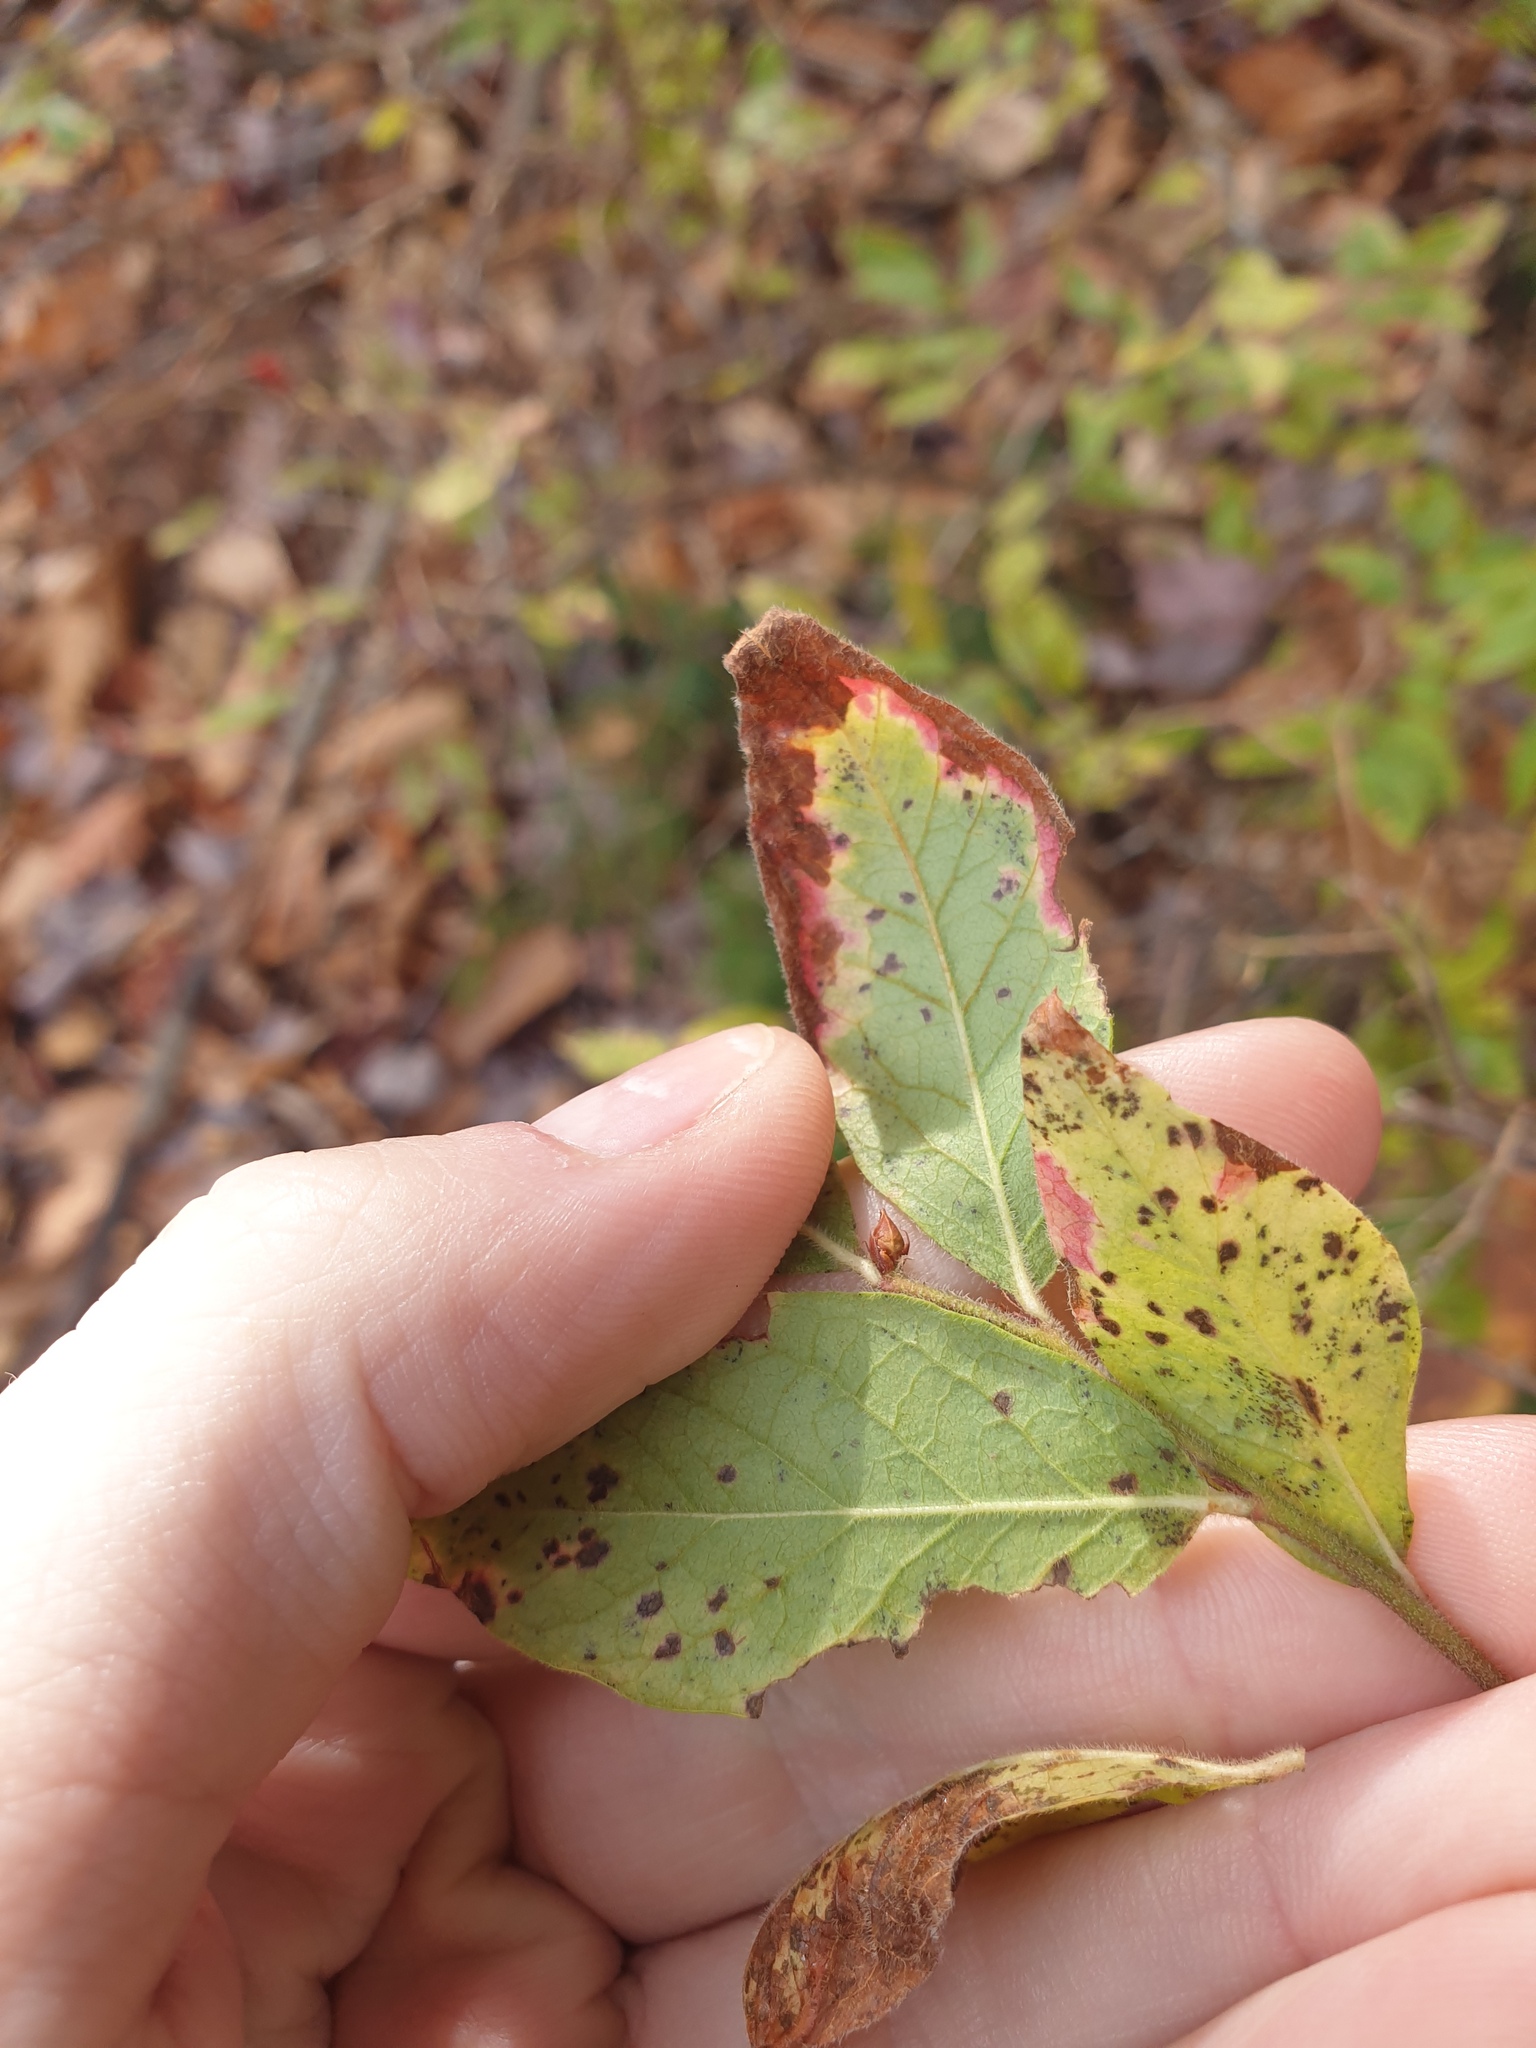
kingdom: Plantae
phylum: Tracheophyta
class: Magnoliopsida
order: Ericales
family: Ericaceae
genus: Vaccinium
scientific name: Vaccinium myrtilloides
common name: Canada blueberry
